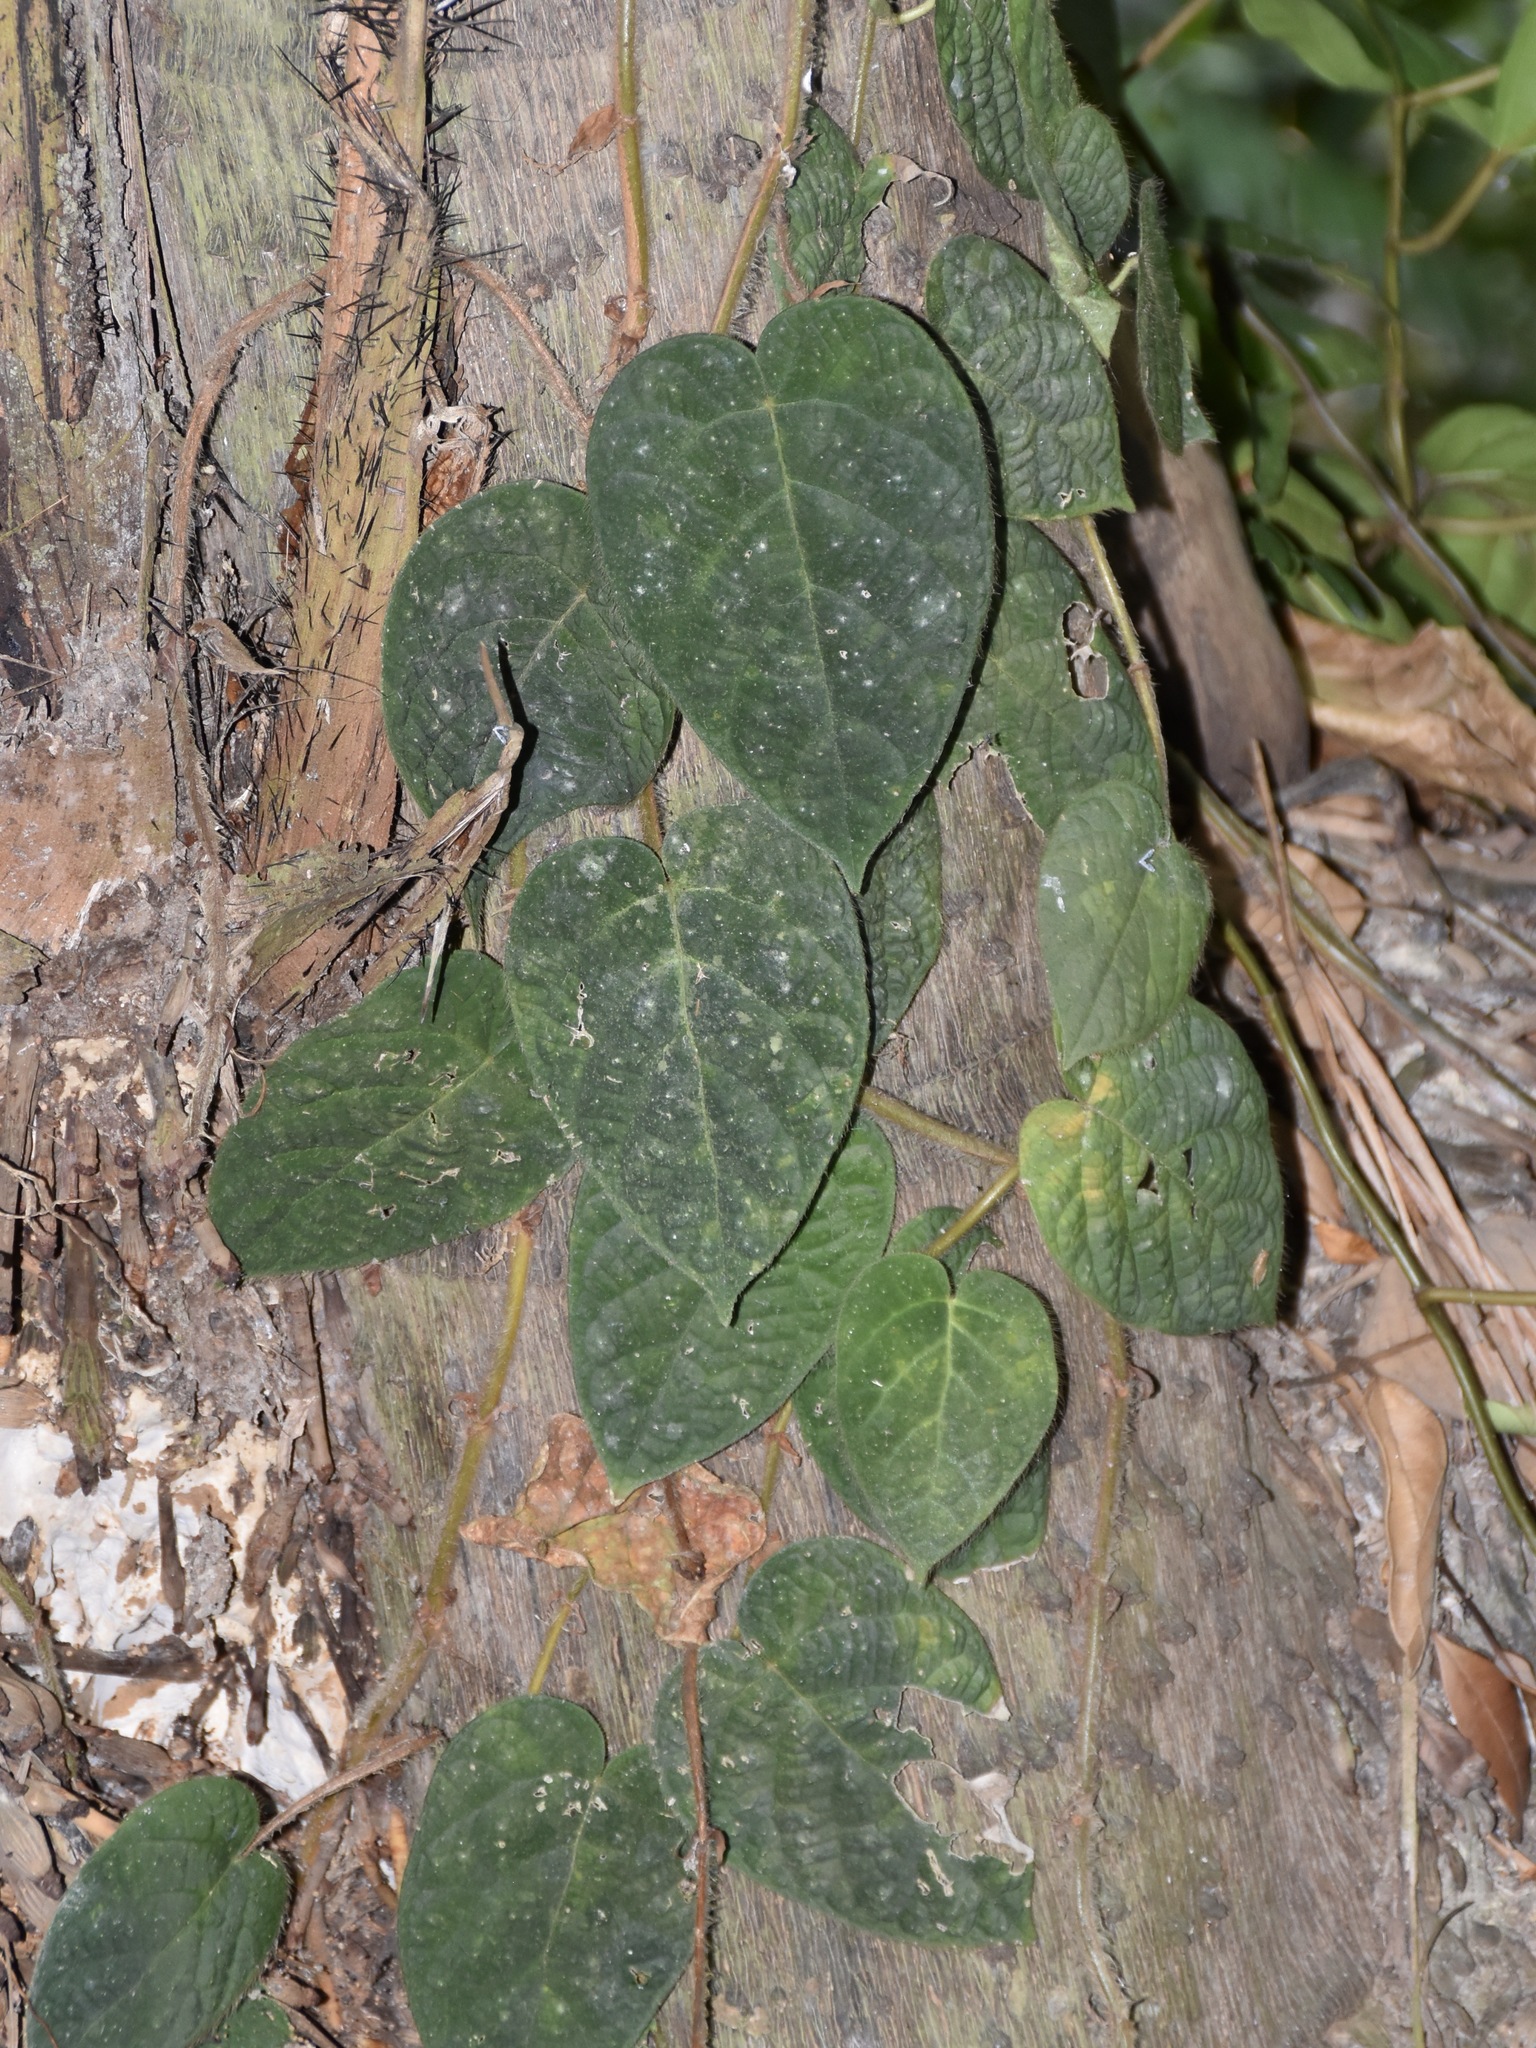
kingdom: Plantae
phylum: Tracheophyta
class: Magnoliopsida
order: Rosales
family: Moraceae
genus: Ficus
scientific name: Ficus villosa
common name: Villous fig
